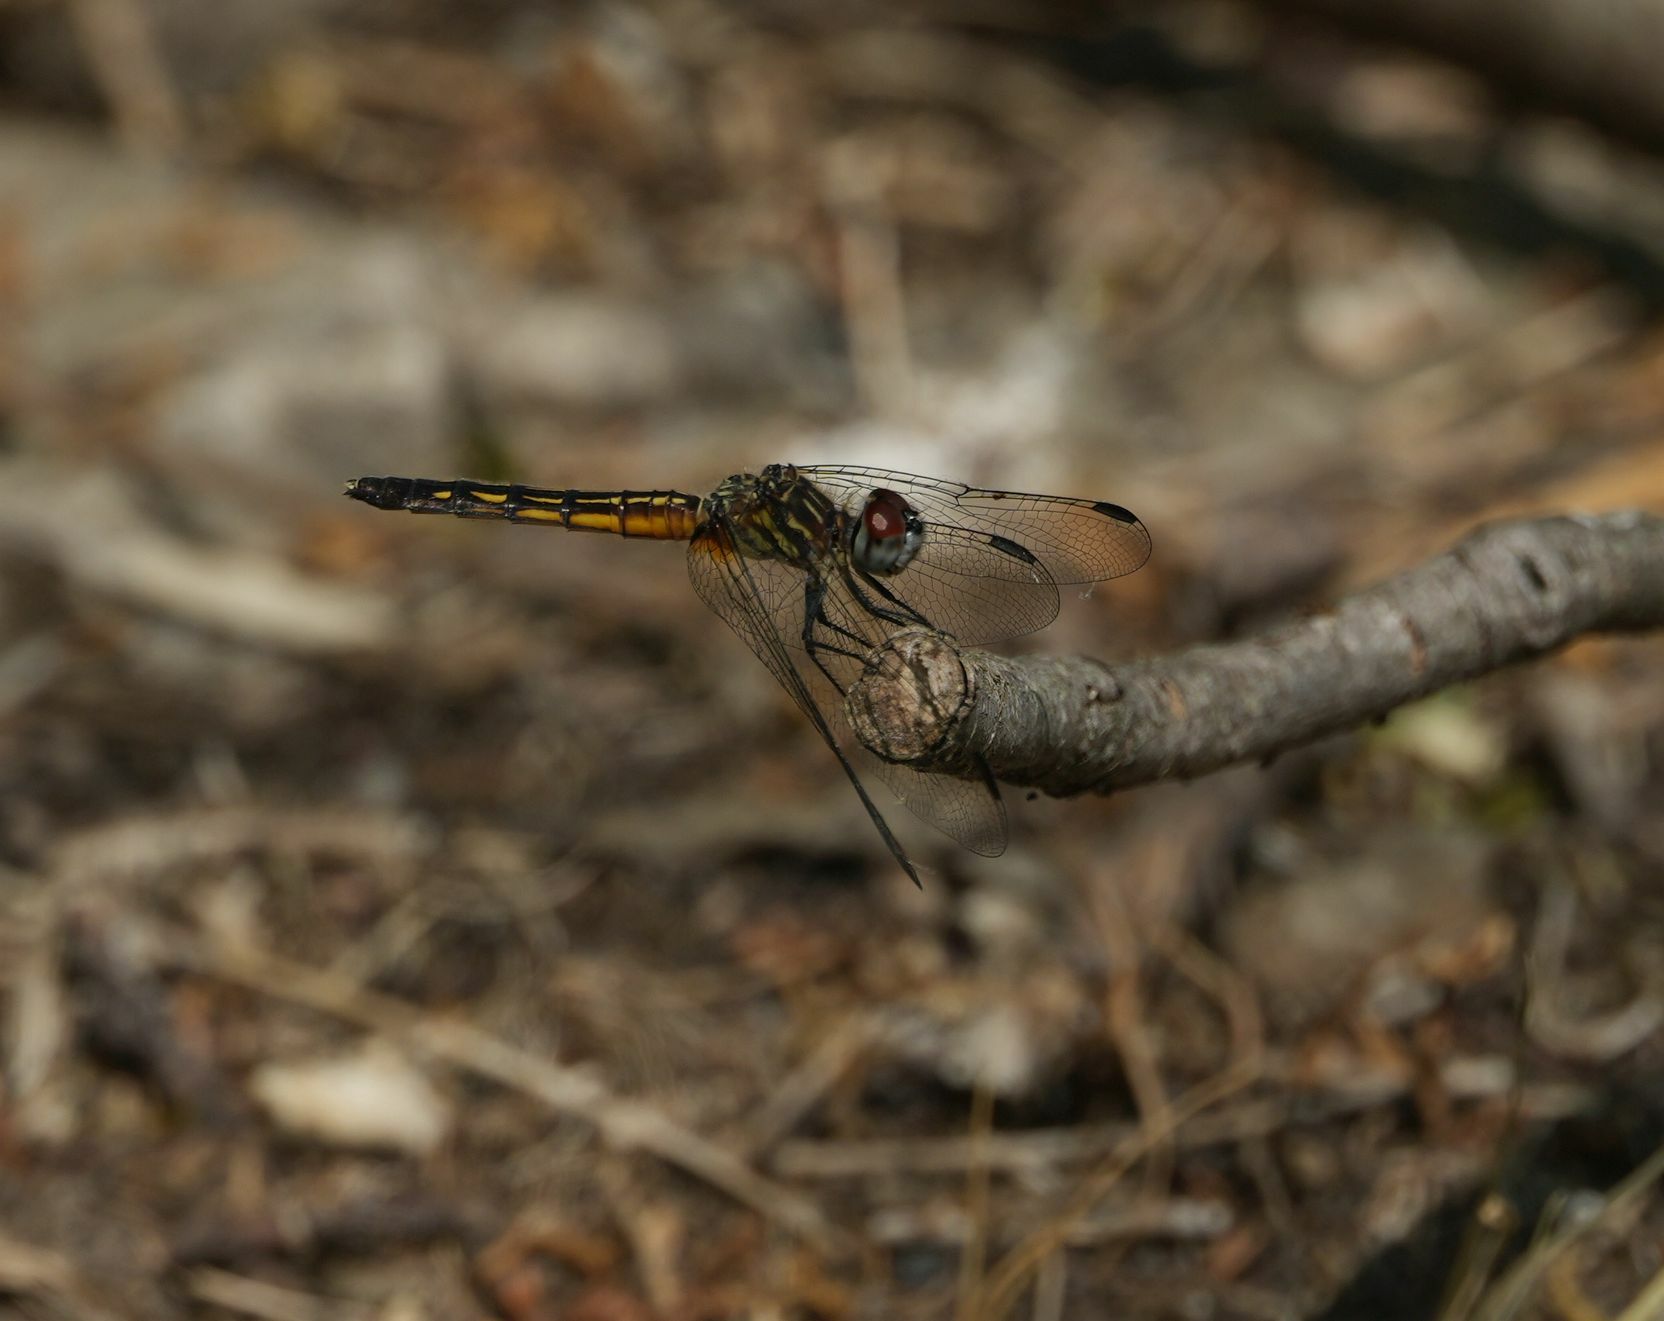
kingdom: Animalia
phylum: Arthropoda
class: Insecta
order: Odonata
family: Libellulidae
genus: Pachydiplax
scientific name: Pachydiplax longipennis
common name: Blue dasher
